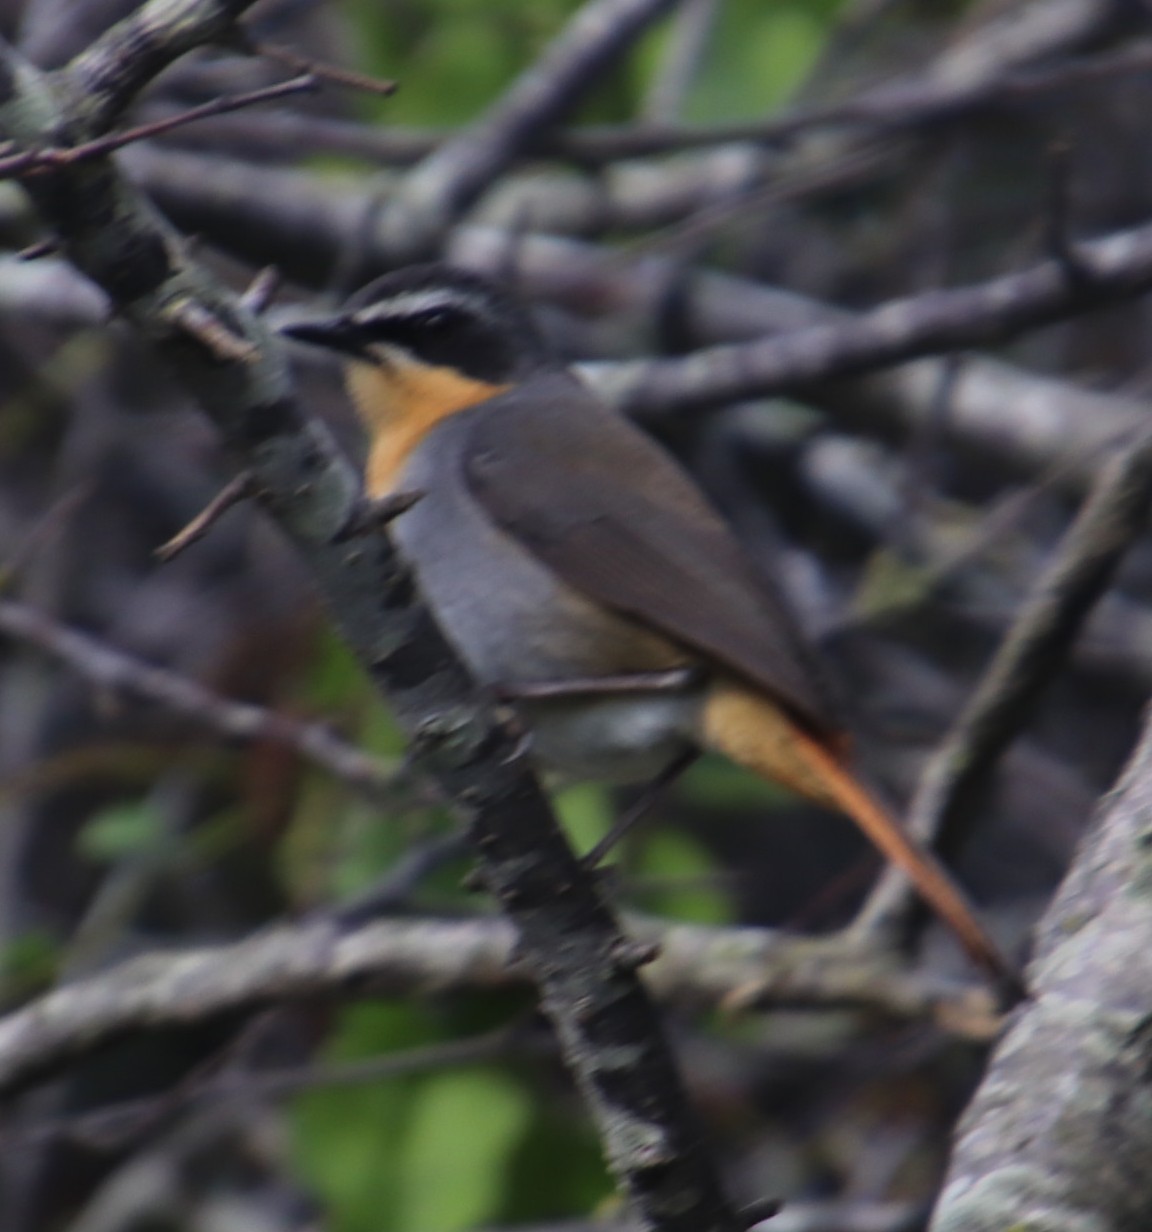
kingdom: Animalia
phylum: Chordata
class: Aves
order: Passeriformes
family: Muscicapidae
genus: Cossypha
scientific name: Cossypha caffra
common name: Cape robin-chat
